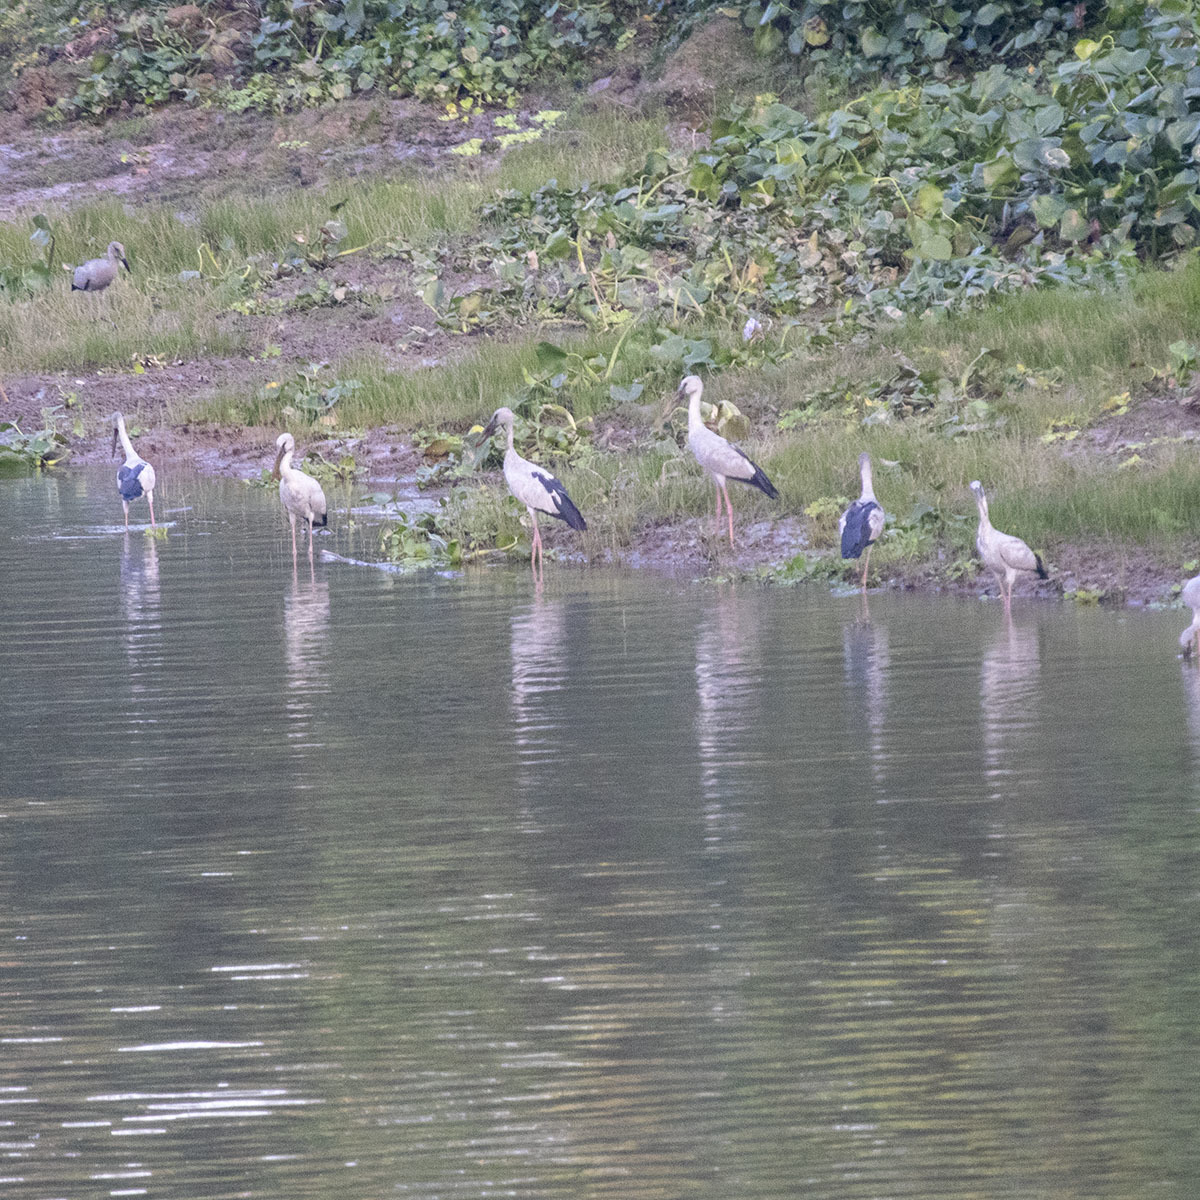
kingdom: Animalia
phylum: Chordata
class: Aves
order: Ciconiiformes
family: Ciconiidae
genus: Anastomus
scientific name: Anastomus oscitans
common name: Asian openbill
